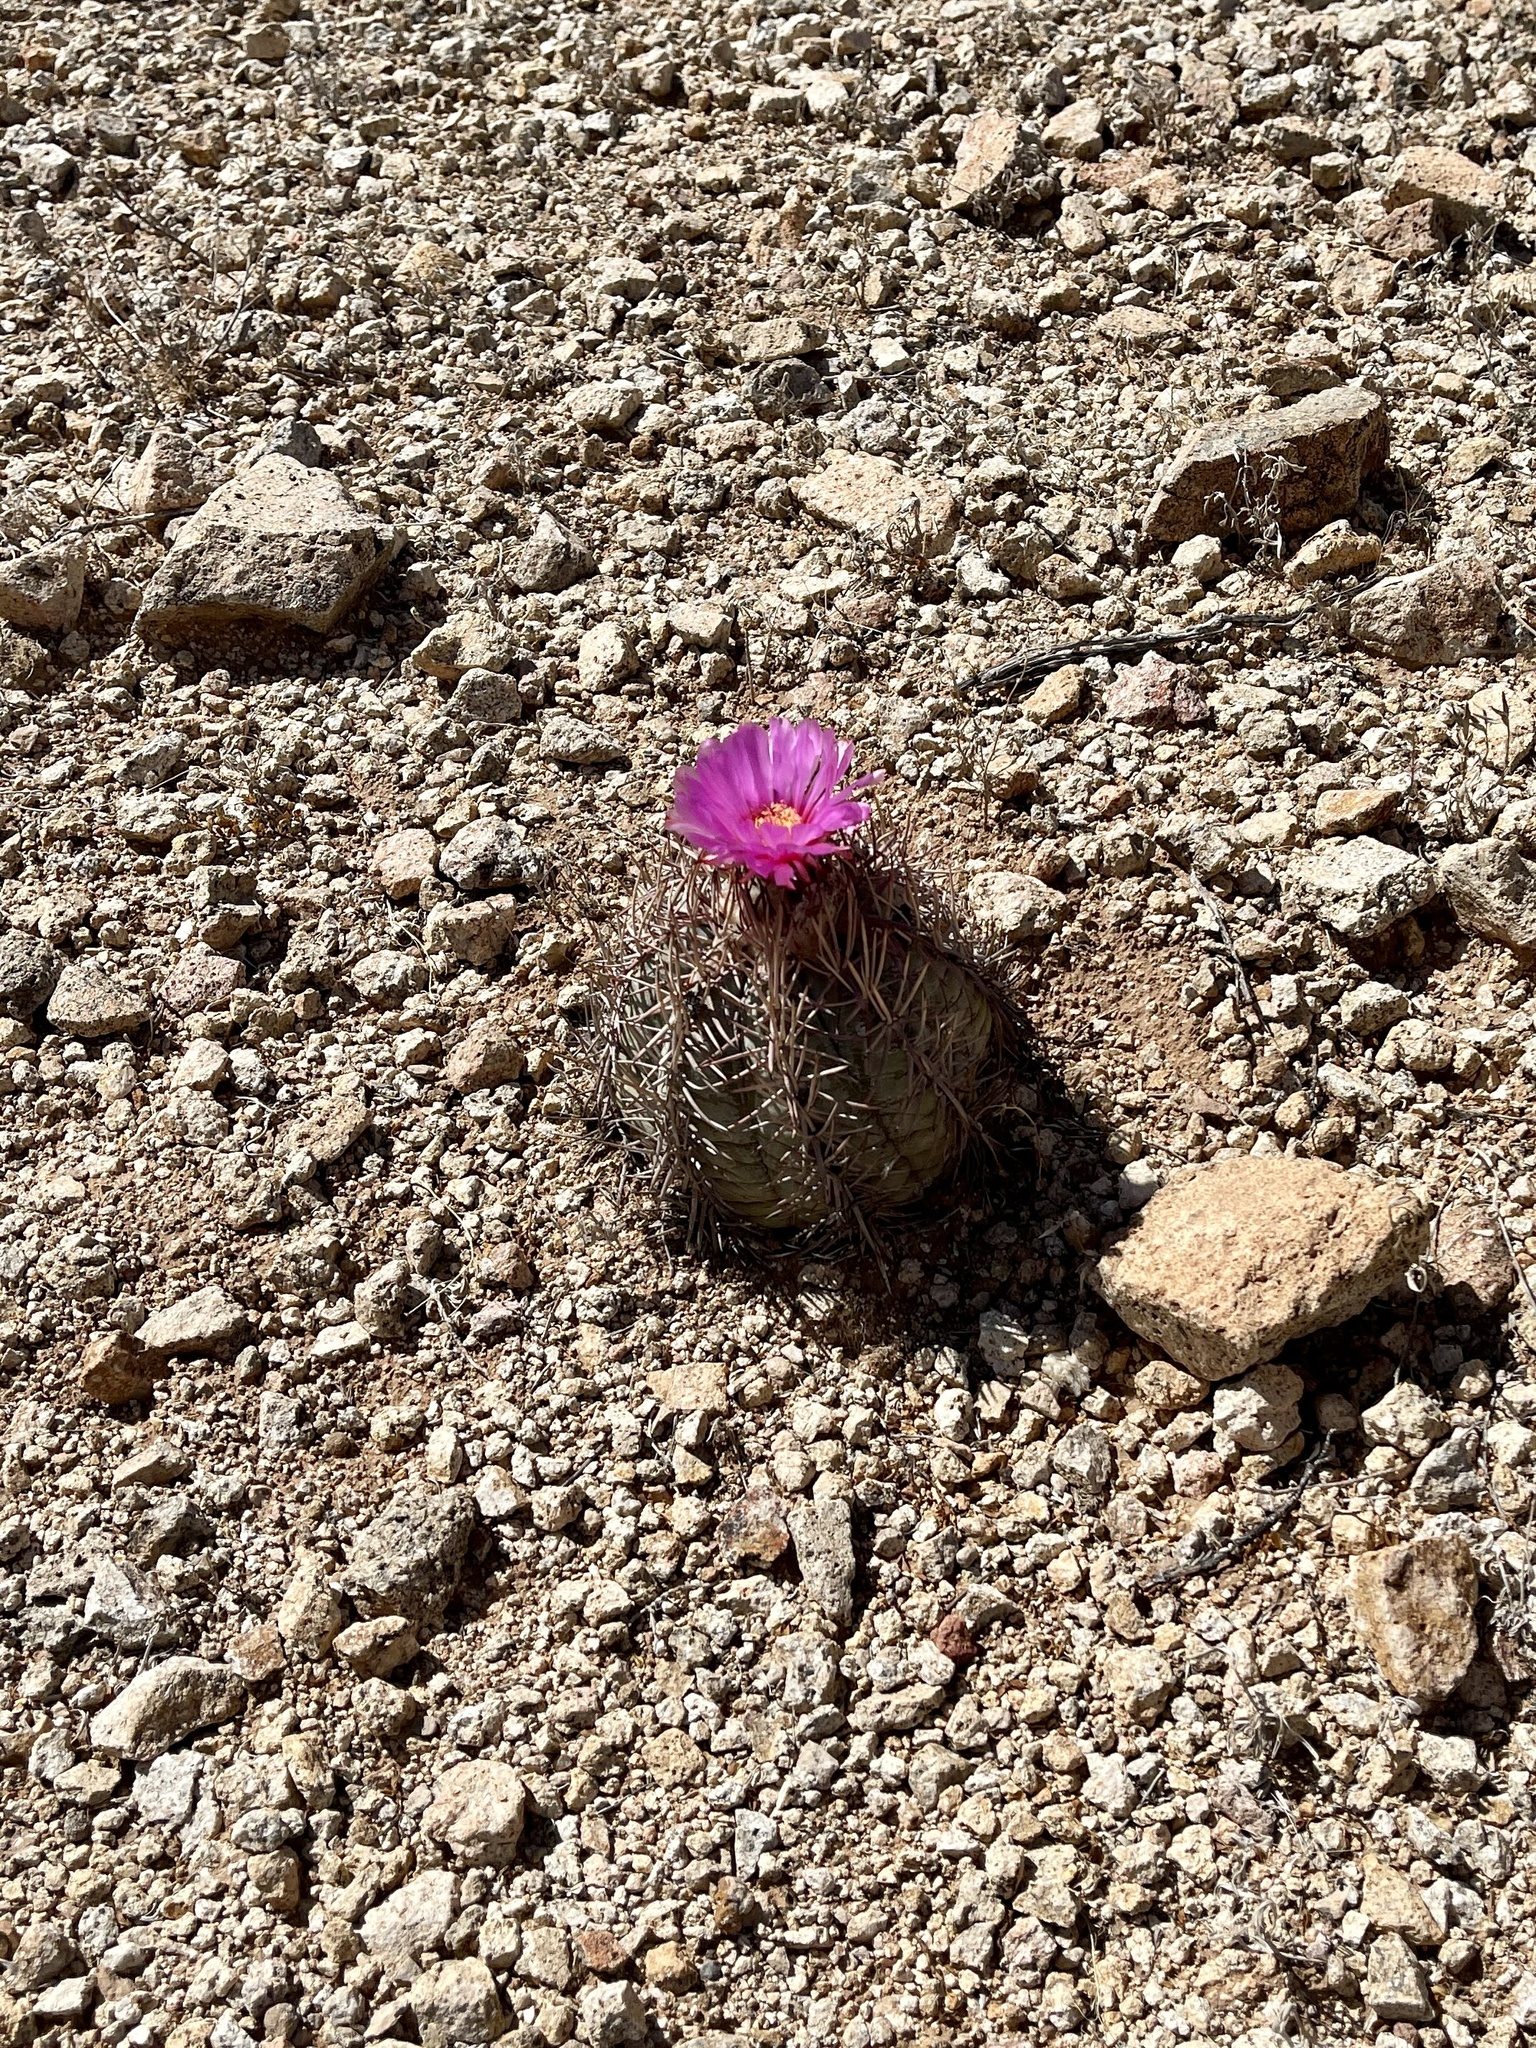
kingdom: Plantae
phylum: Tracheophyta
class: Magnoliopsida
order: Caryophyllales
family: Cactaceae
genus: Echinocactus
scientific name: Echinocactus horizonthalonius
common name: Devilshead
